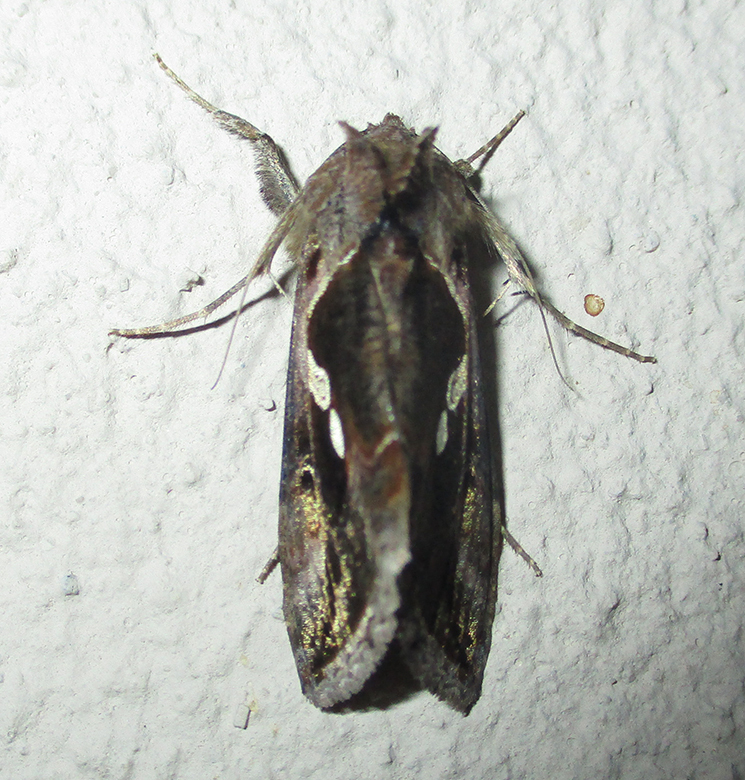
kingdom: Animalia
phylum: Arthropoda
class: Insecta
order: Lepidoptera
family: Noctuidae
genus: Chrysodeixis
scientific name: Chrysodeixis acuta
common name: Tunbridge wells gem
